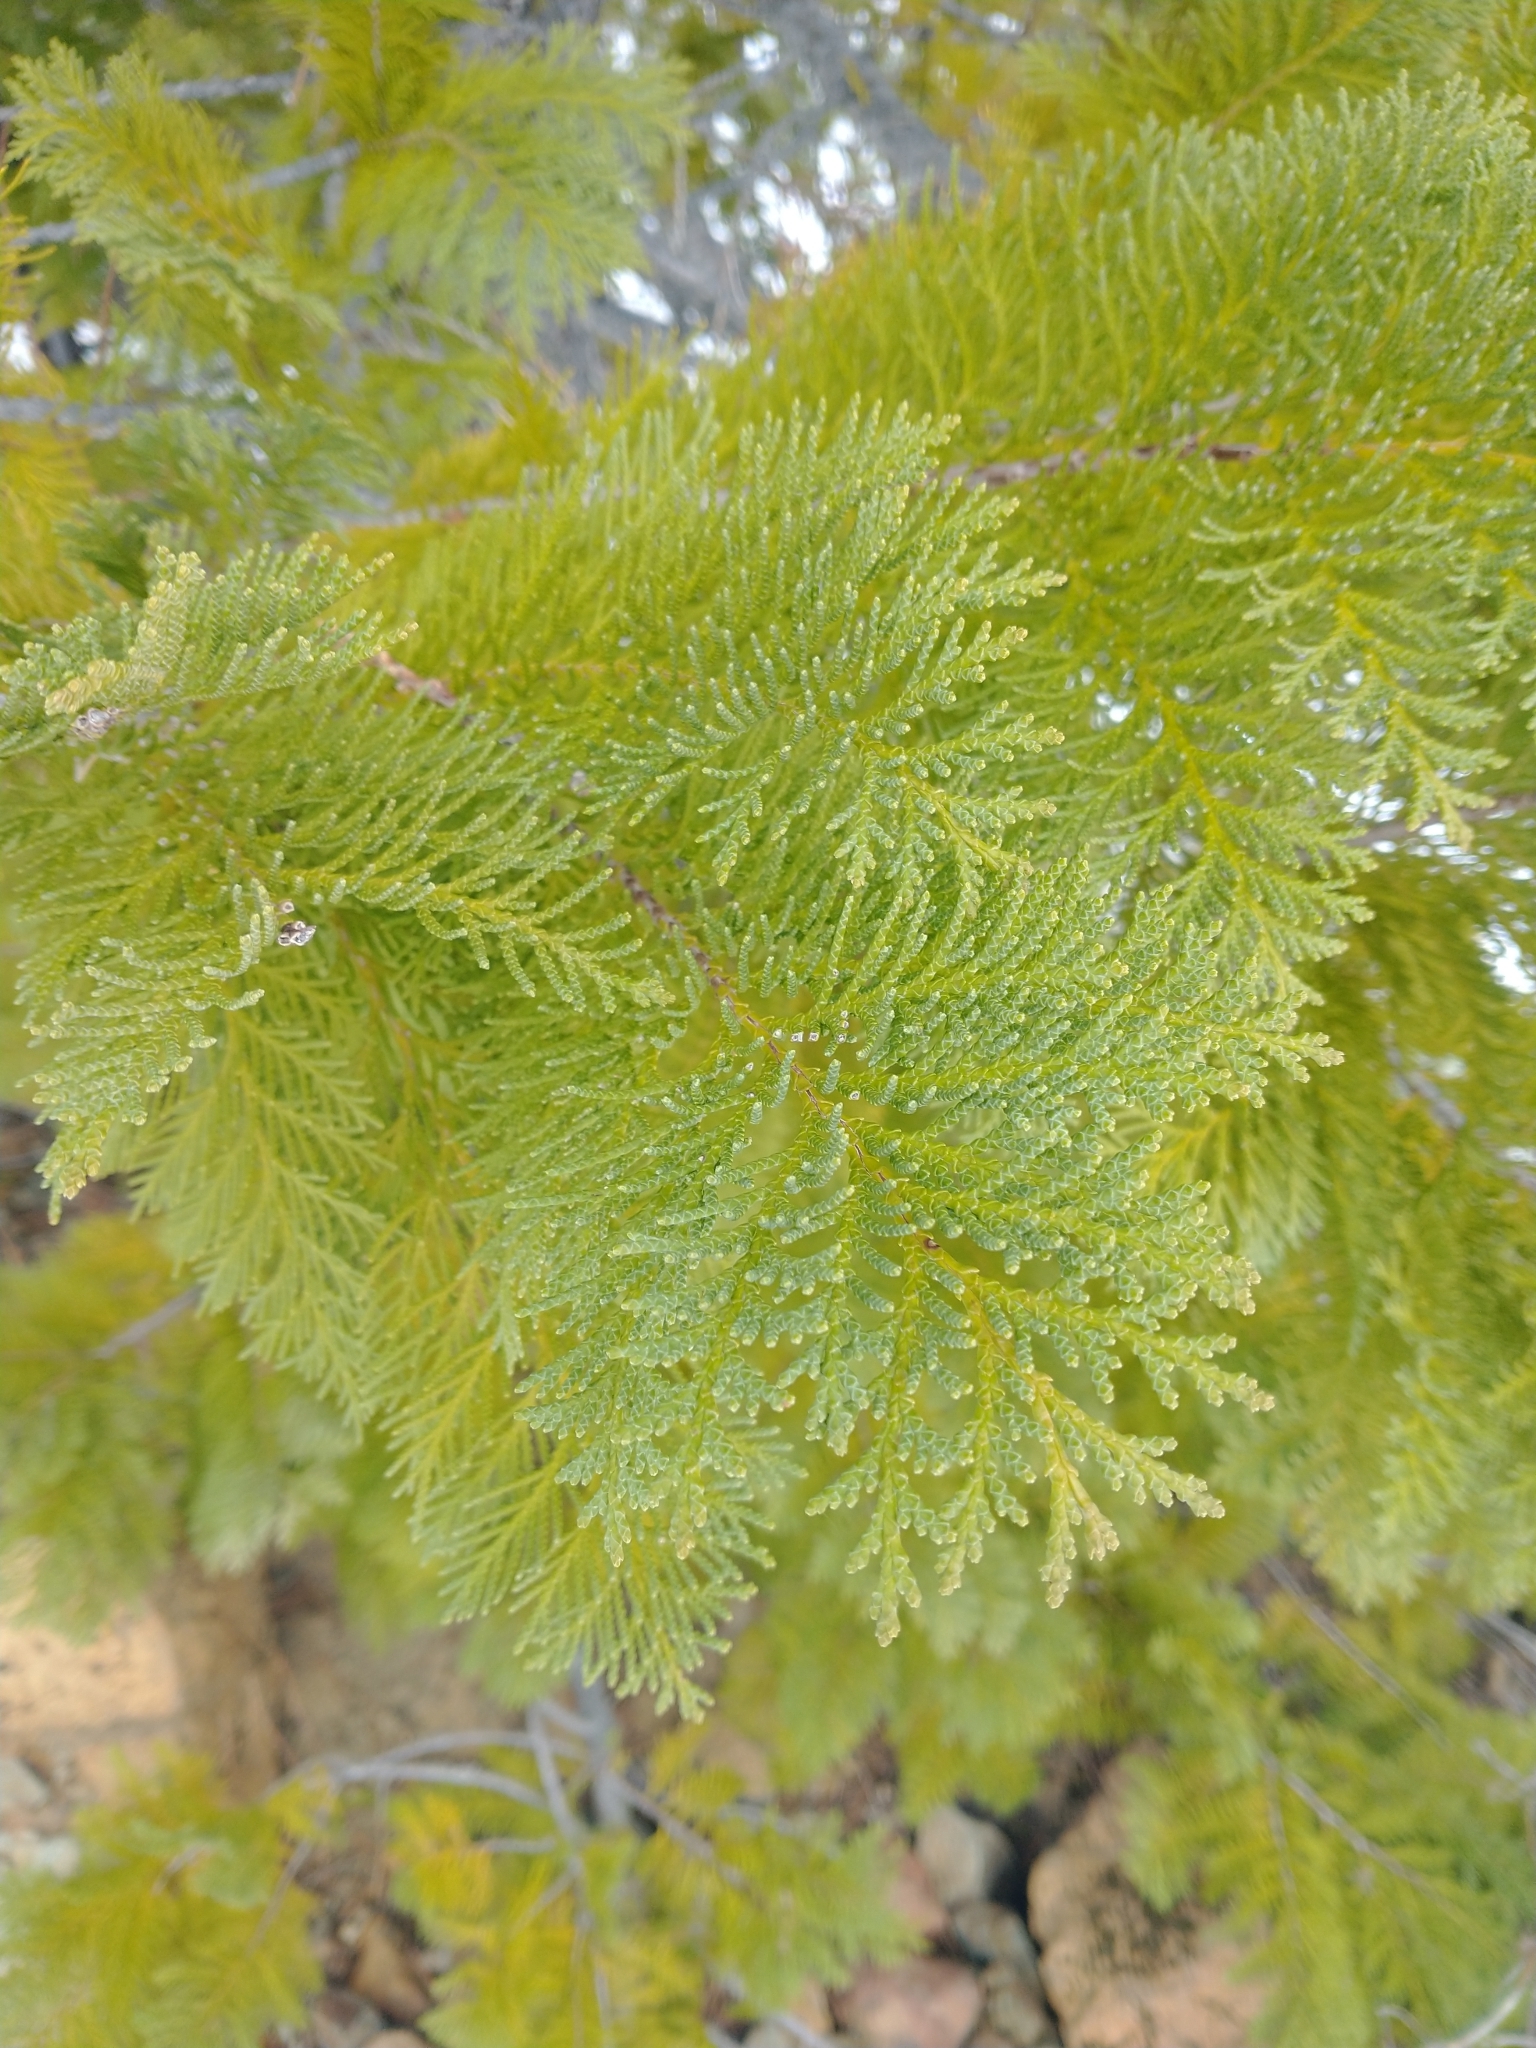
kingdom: Plantae
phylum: Tracheophyta
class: Pinopsida
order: Pinales
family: Cupressaceae
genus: Chamaecyparis
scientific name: Chamaecyparis lawsoniana
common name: Lawson's cypress
